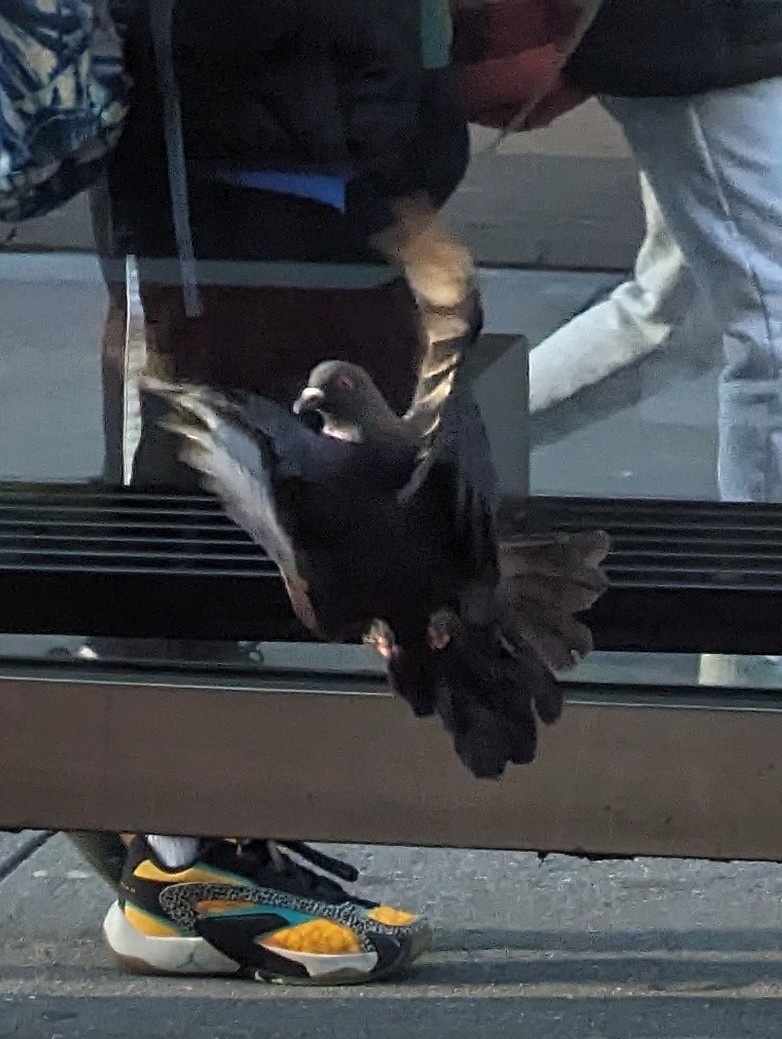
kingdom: Animalia
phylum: Chordata
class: Aves
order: Columbiformes
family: Columbidae
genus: Columba
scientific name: Columba livia
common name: Rock pigeon
